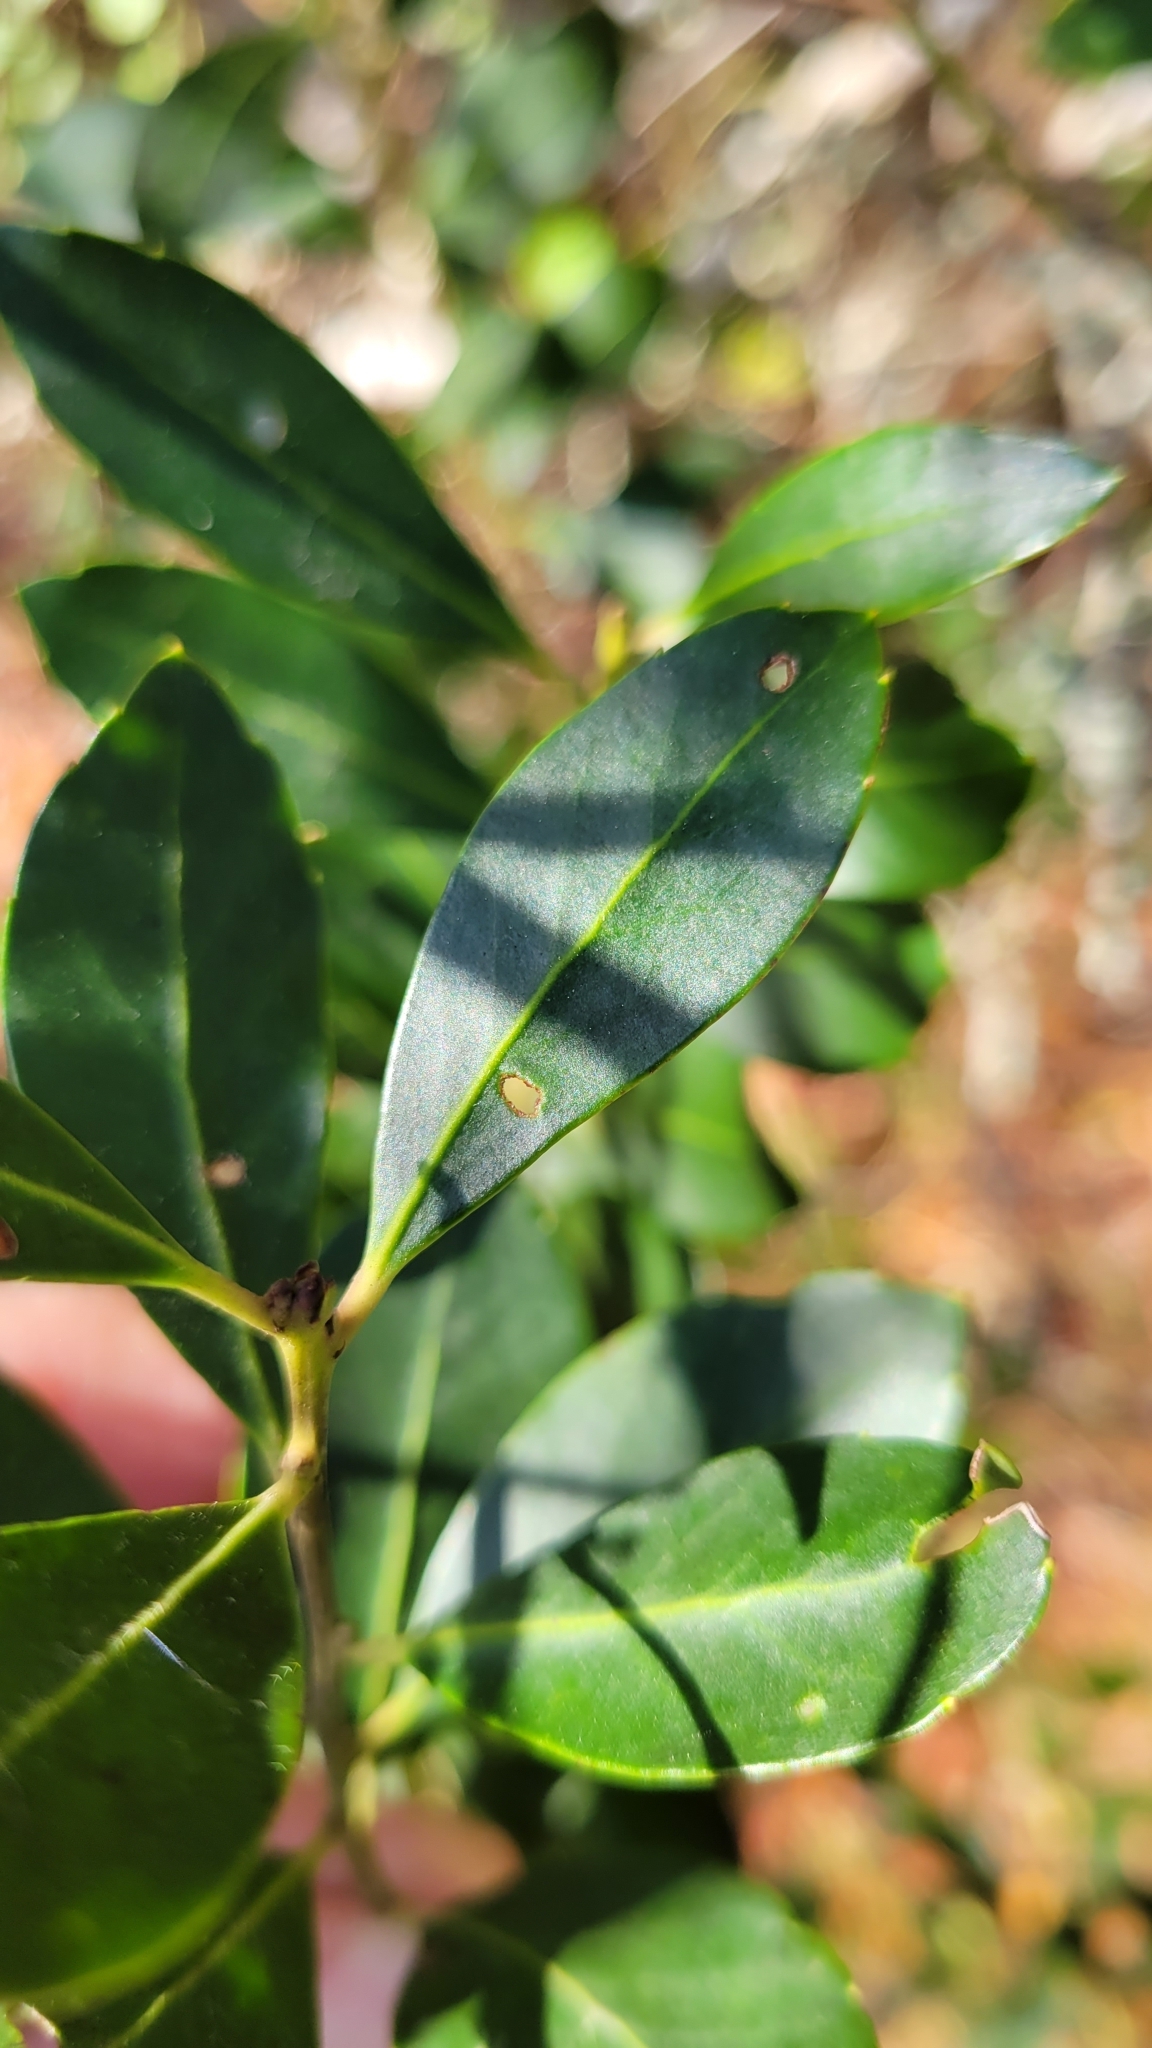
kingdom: Plantae
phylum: Tracheophyta
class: Magnoliopsida
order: Aquifoliales
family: Aquifoliaceae
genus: Ilex
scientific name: Ilex glabra
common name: Bitter gallberry
